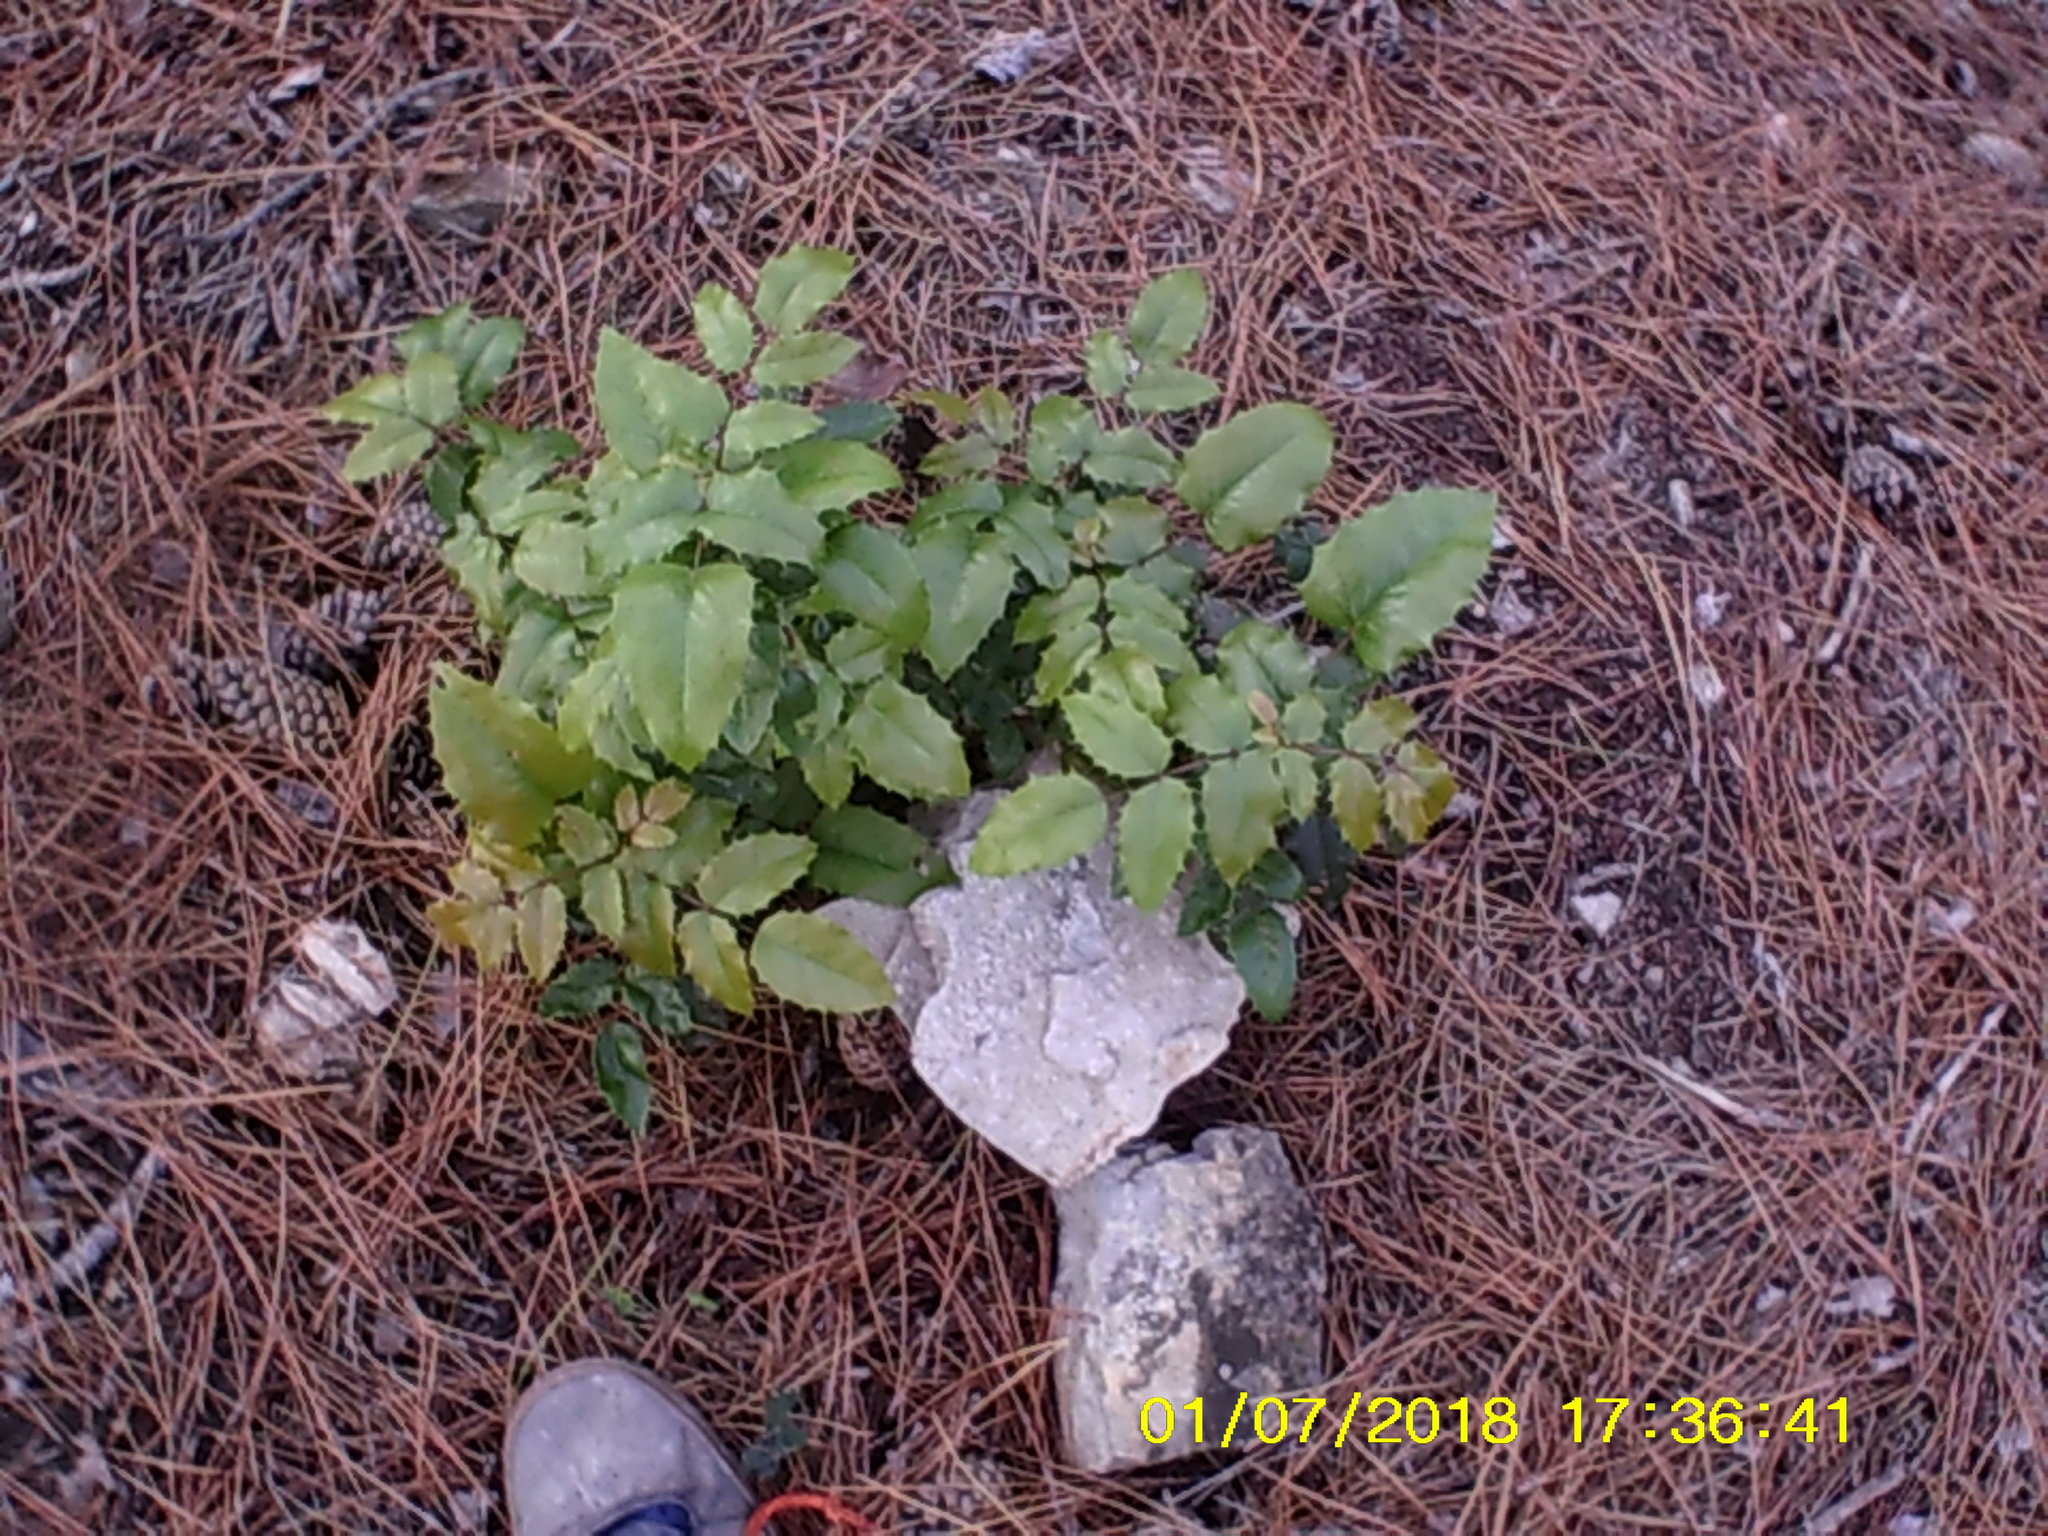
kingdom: Plantae
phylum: Tracheophyta
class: Magnoliopsida
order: Ranunculales
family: Berberidaceae
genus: Mahonia
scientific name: Mahonia aquifolium
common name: Oregon-grape
